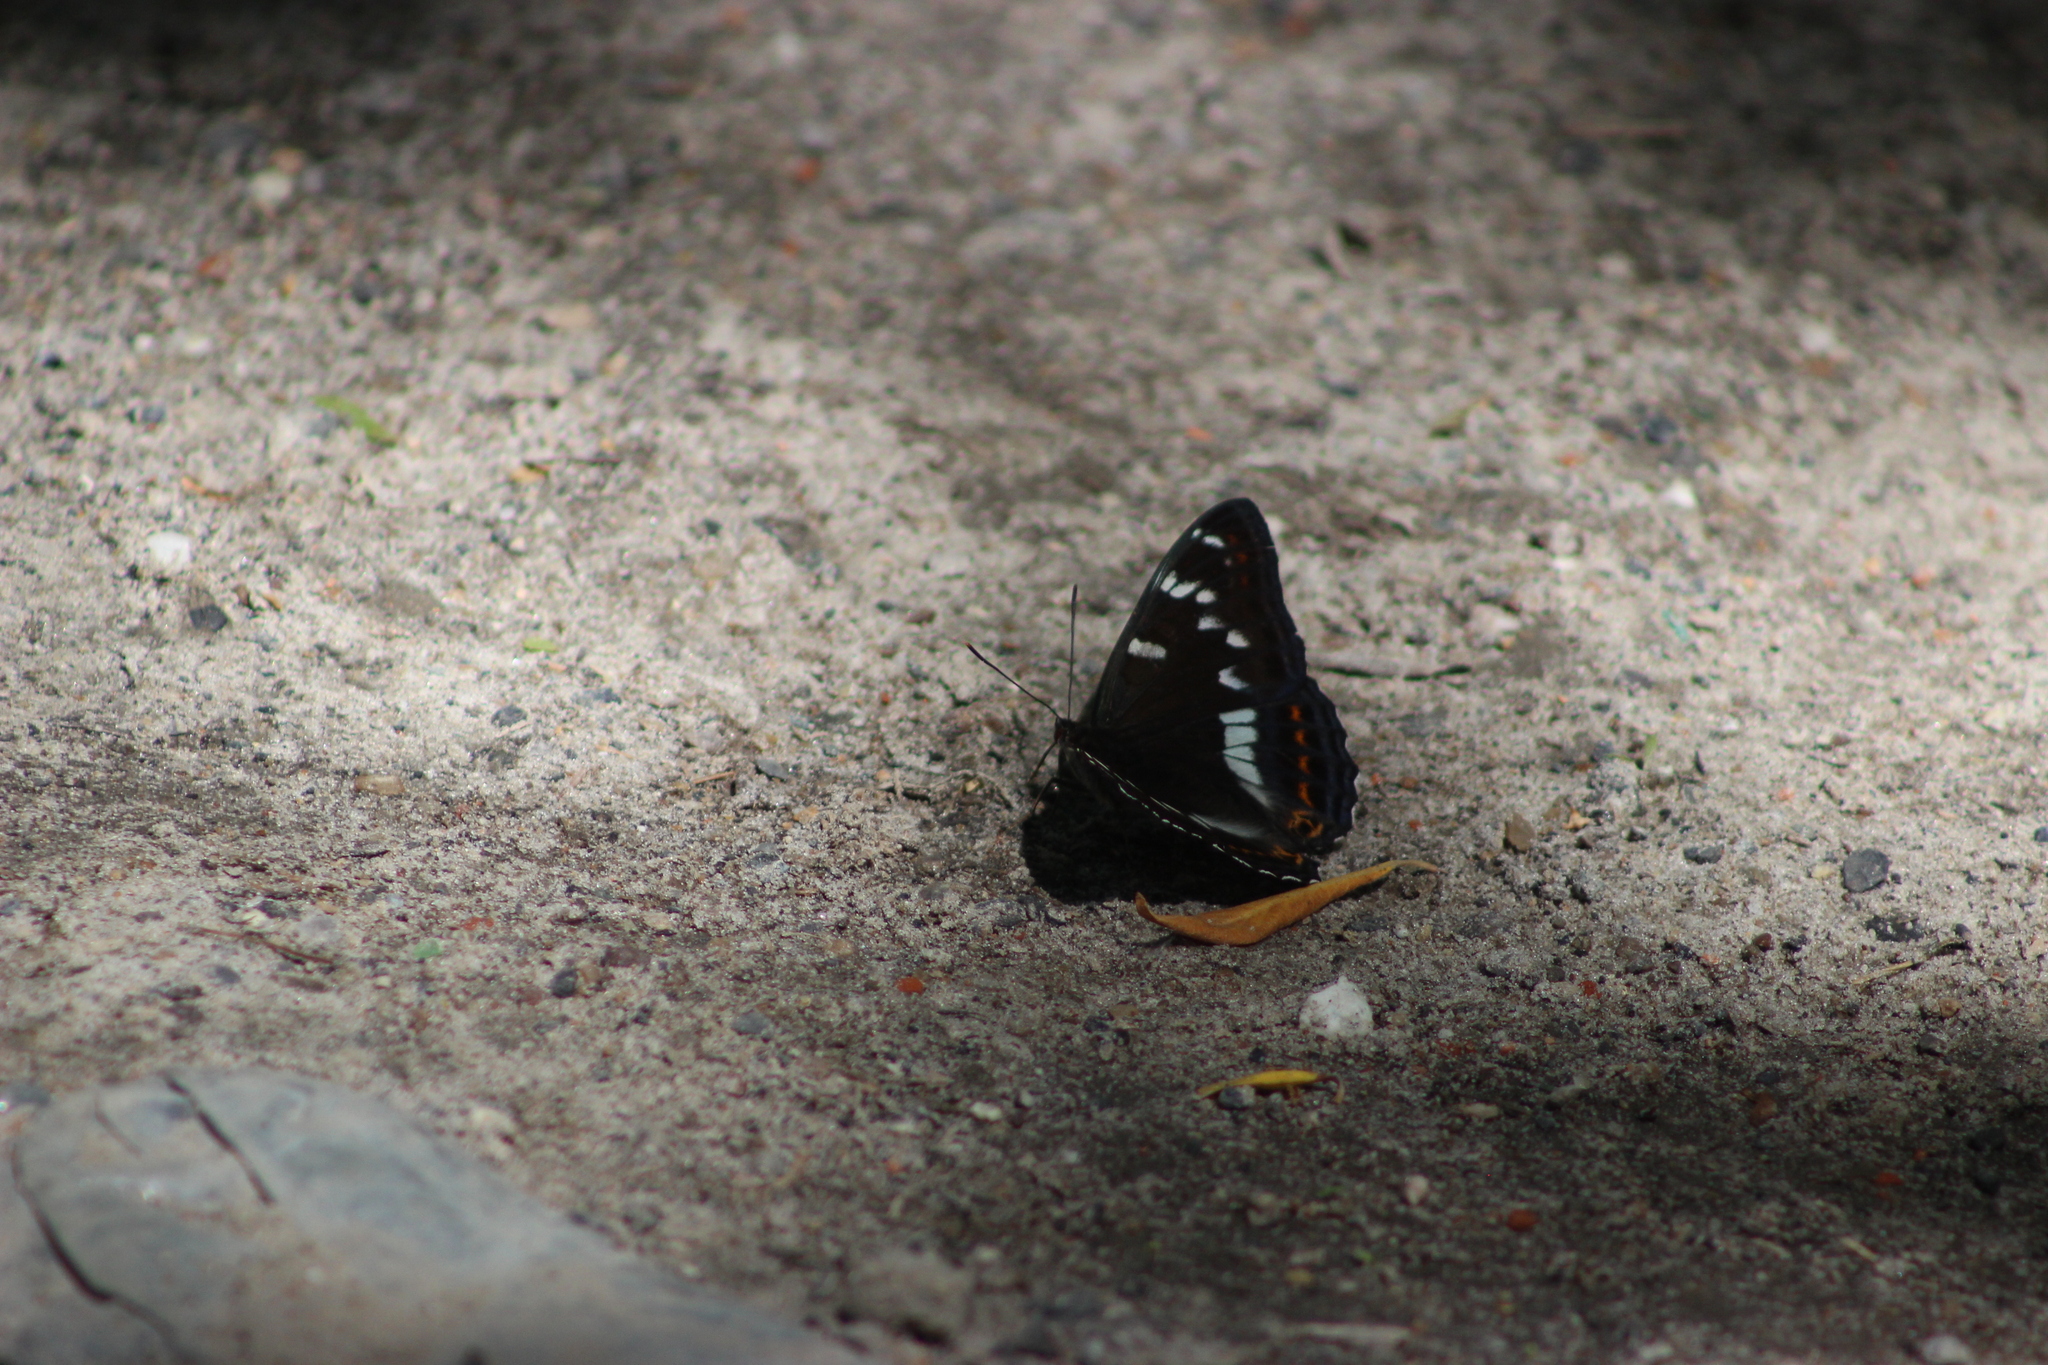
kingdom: Animalia
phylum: Arthropoda
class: Insecta
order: Lepidoptera
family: Nymphalidae
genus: Limenitis
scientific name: Limenitis populi
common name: Poplar admiral
